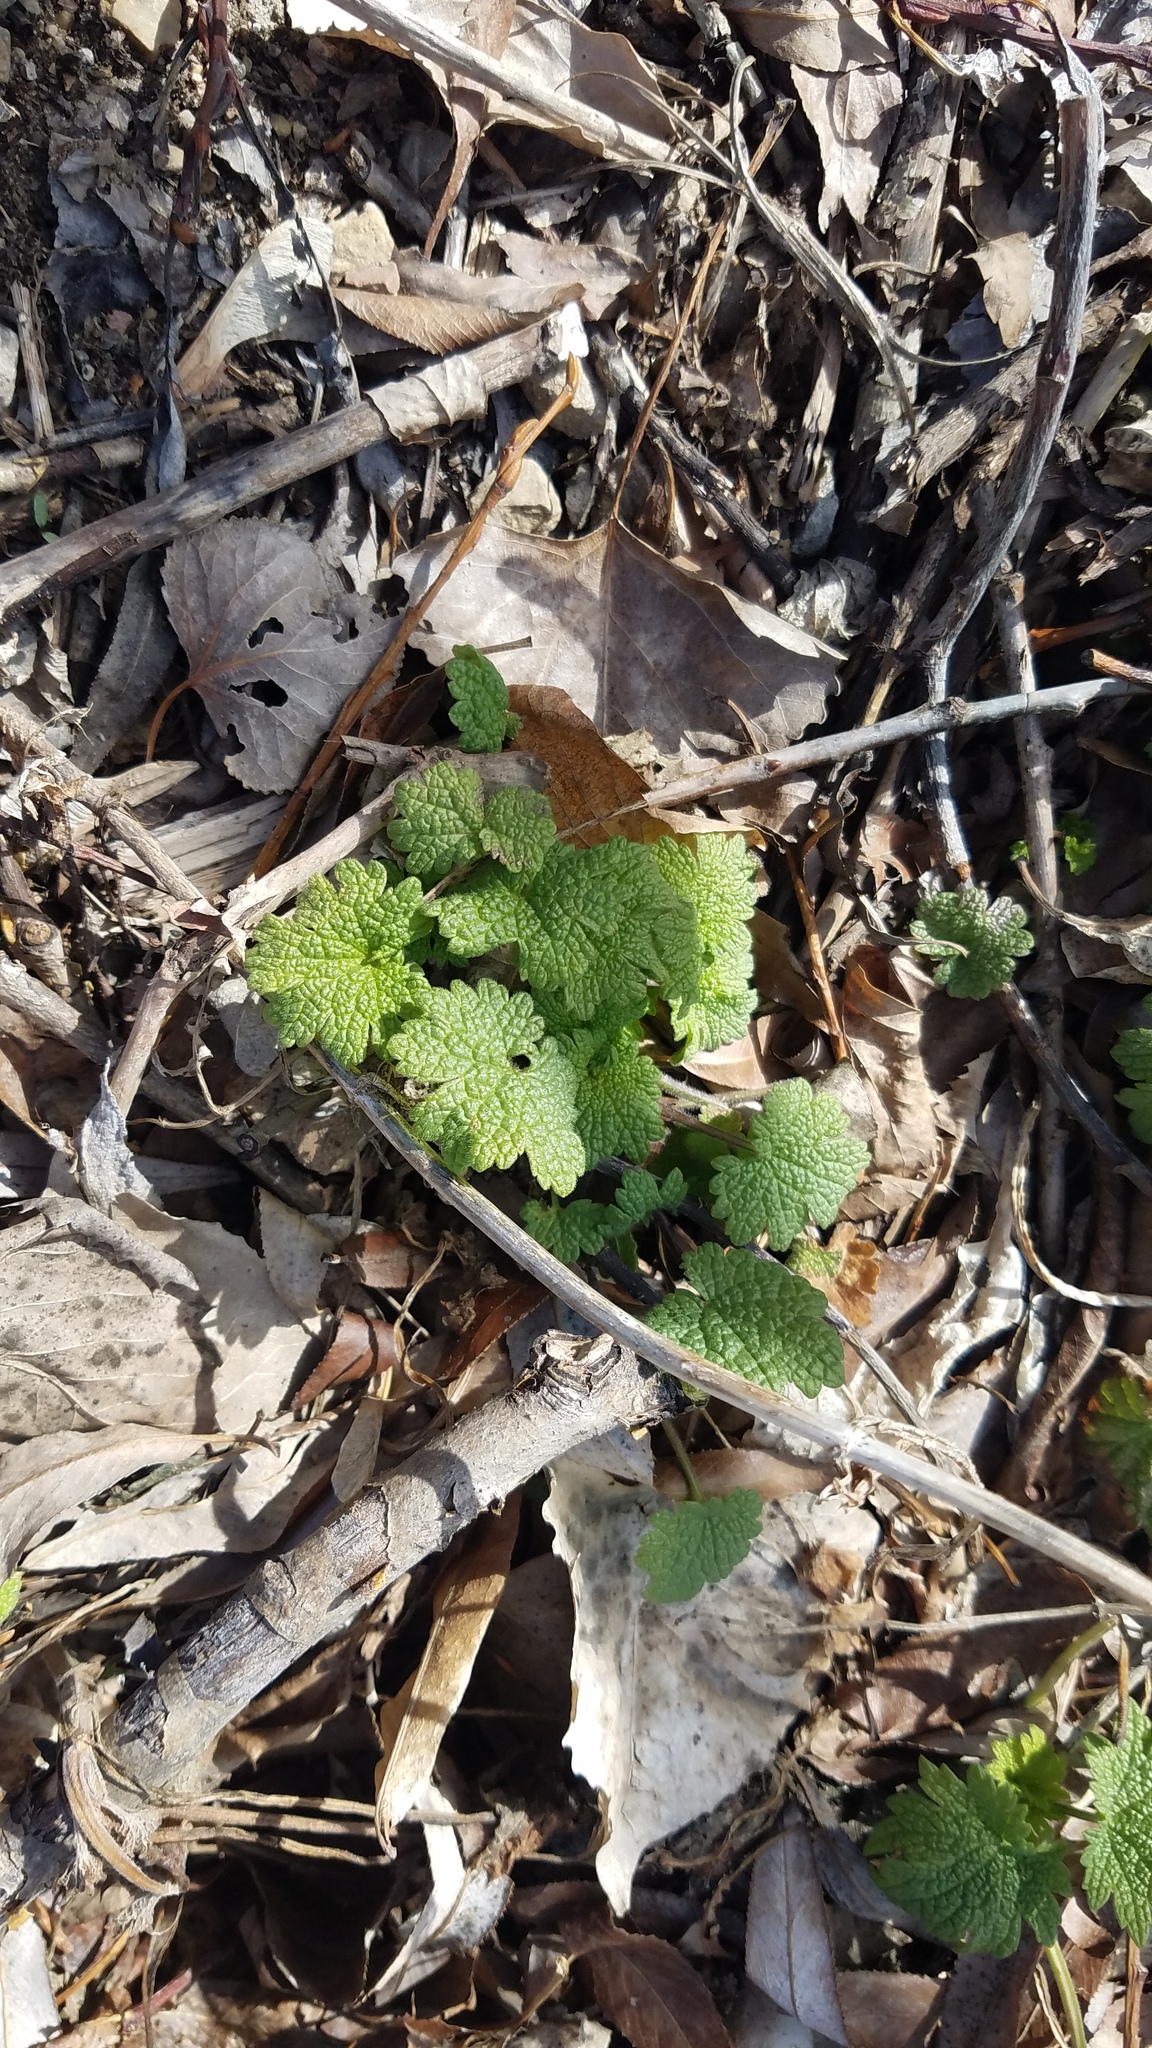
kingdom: Plantae
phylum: Tracheophyta
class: Magnoliopsida
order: Lamiales
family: Lamiaceae
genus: Leonurus
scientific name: Leonurus cardiaca
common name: Motherwort
